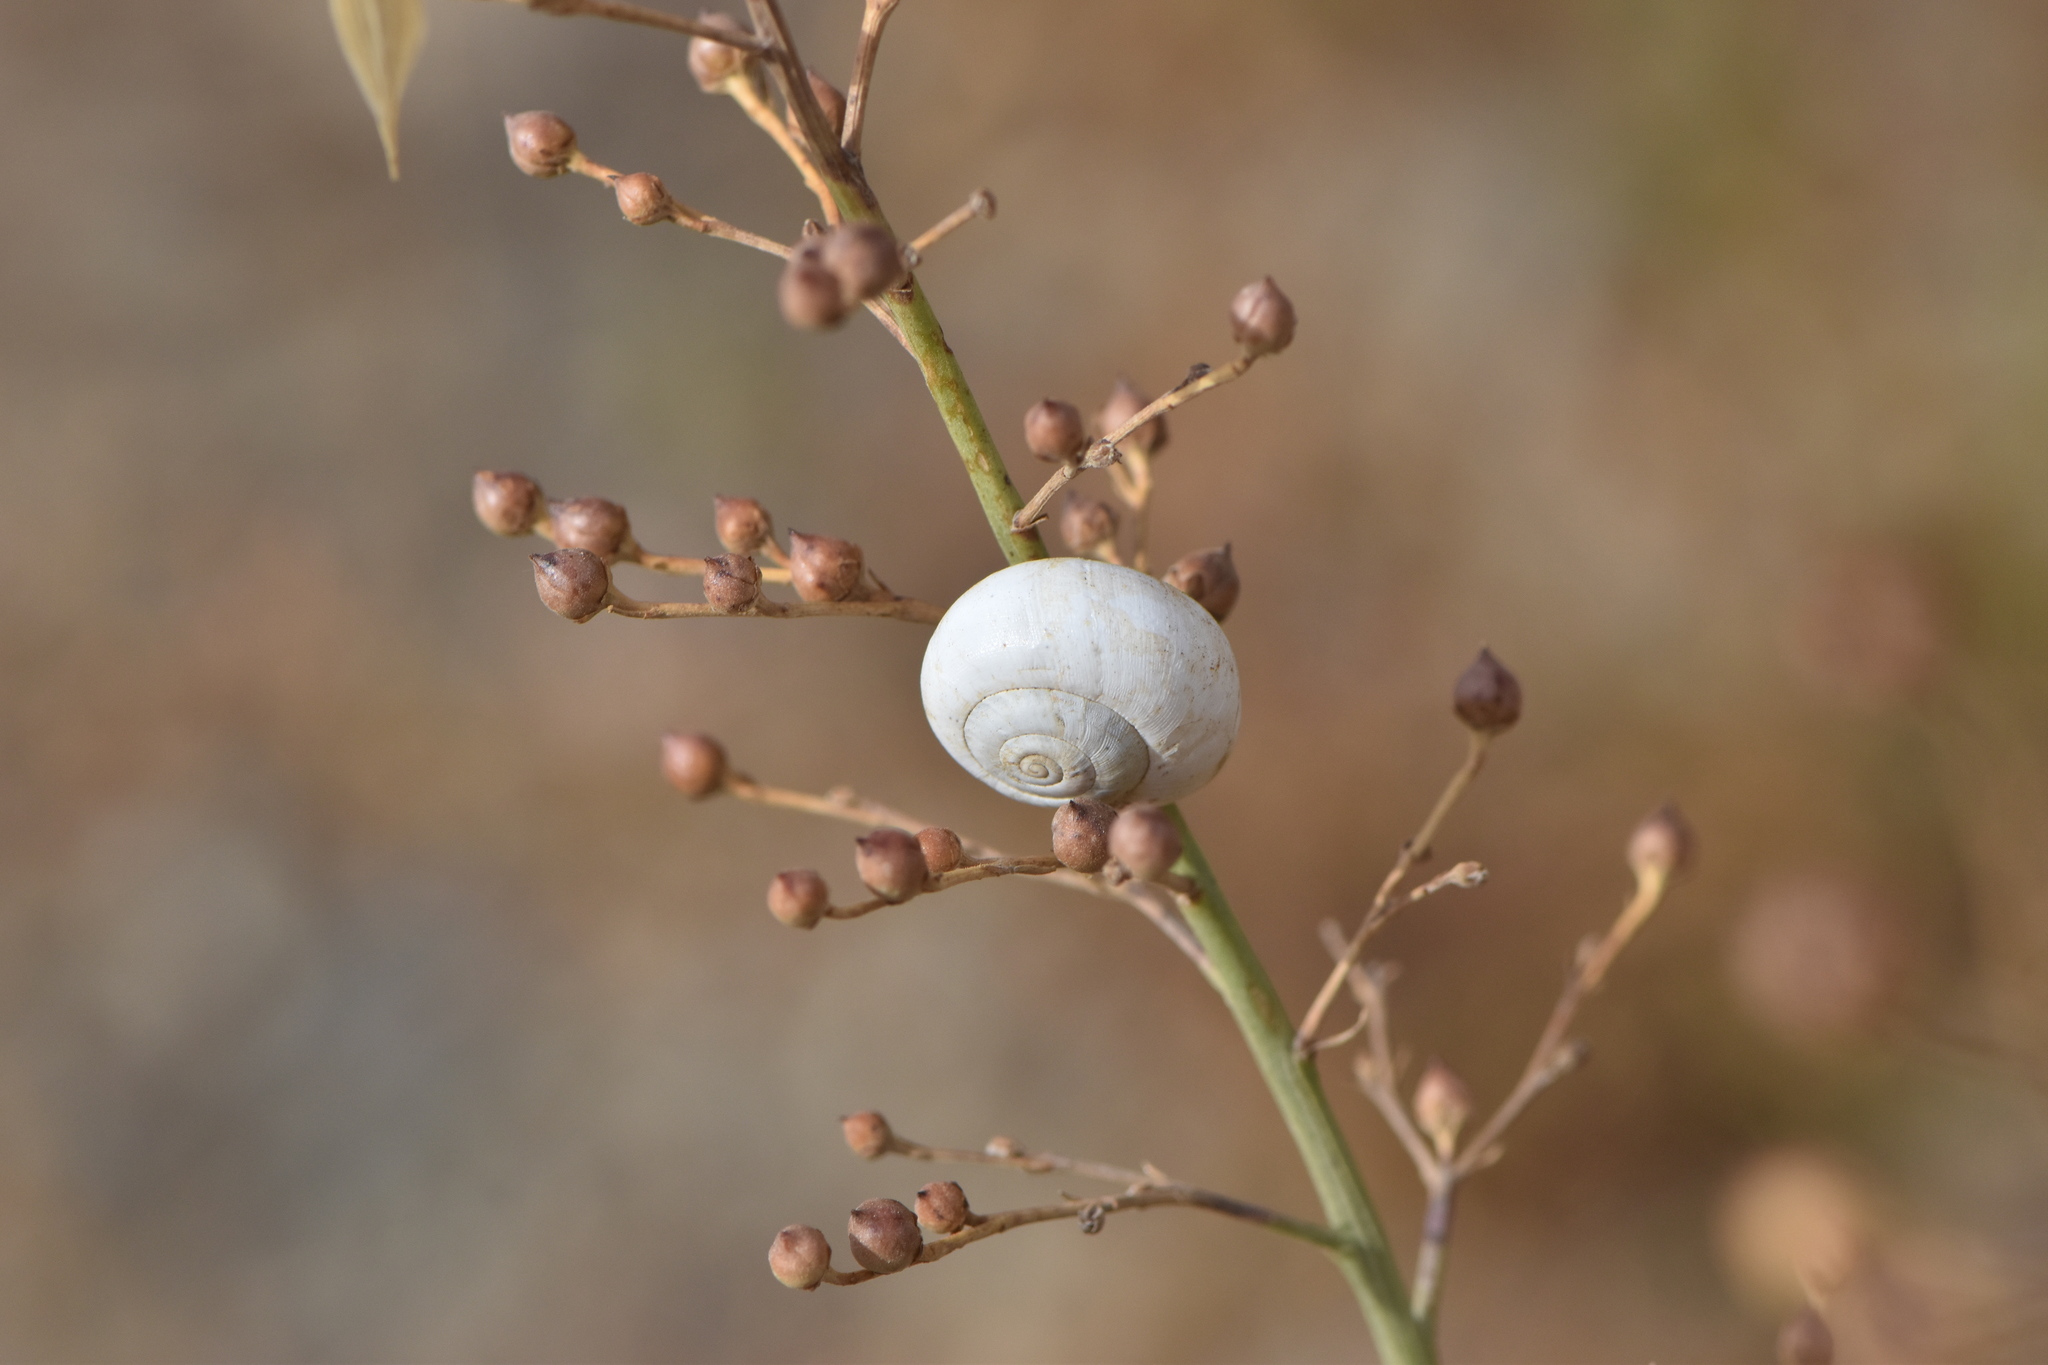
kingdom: Animalia
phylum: Mollusca
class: Gastropoda
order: Stylommatophora
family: Helicidae
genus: Theba
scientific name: Theba pisana
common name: White snail
